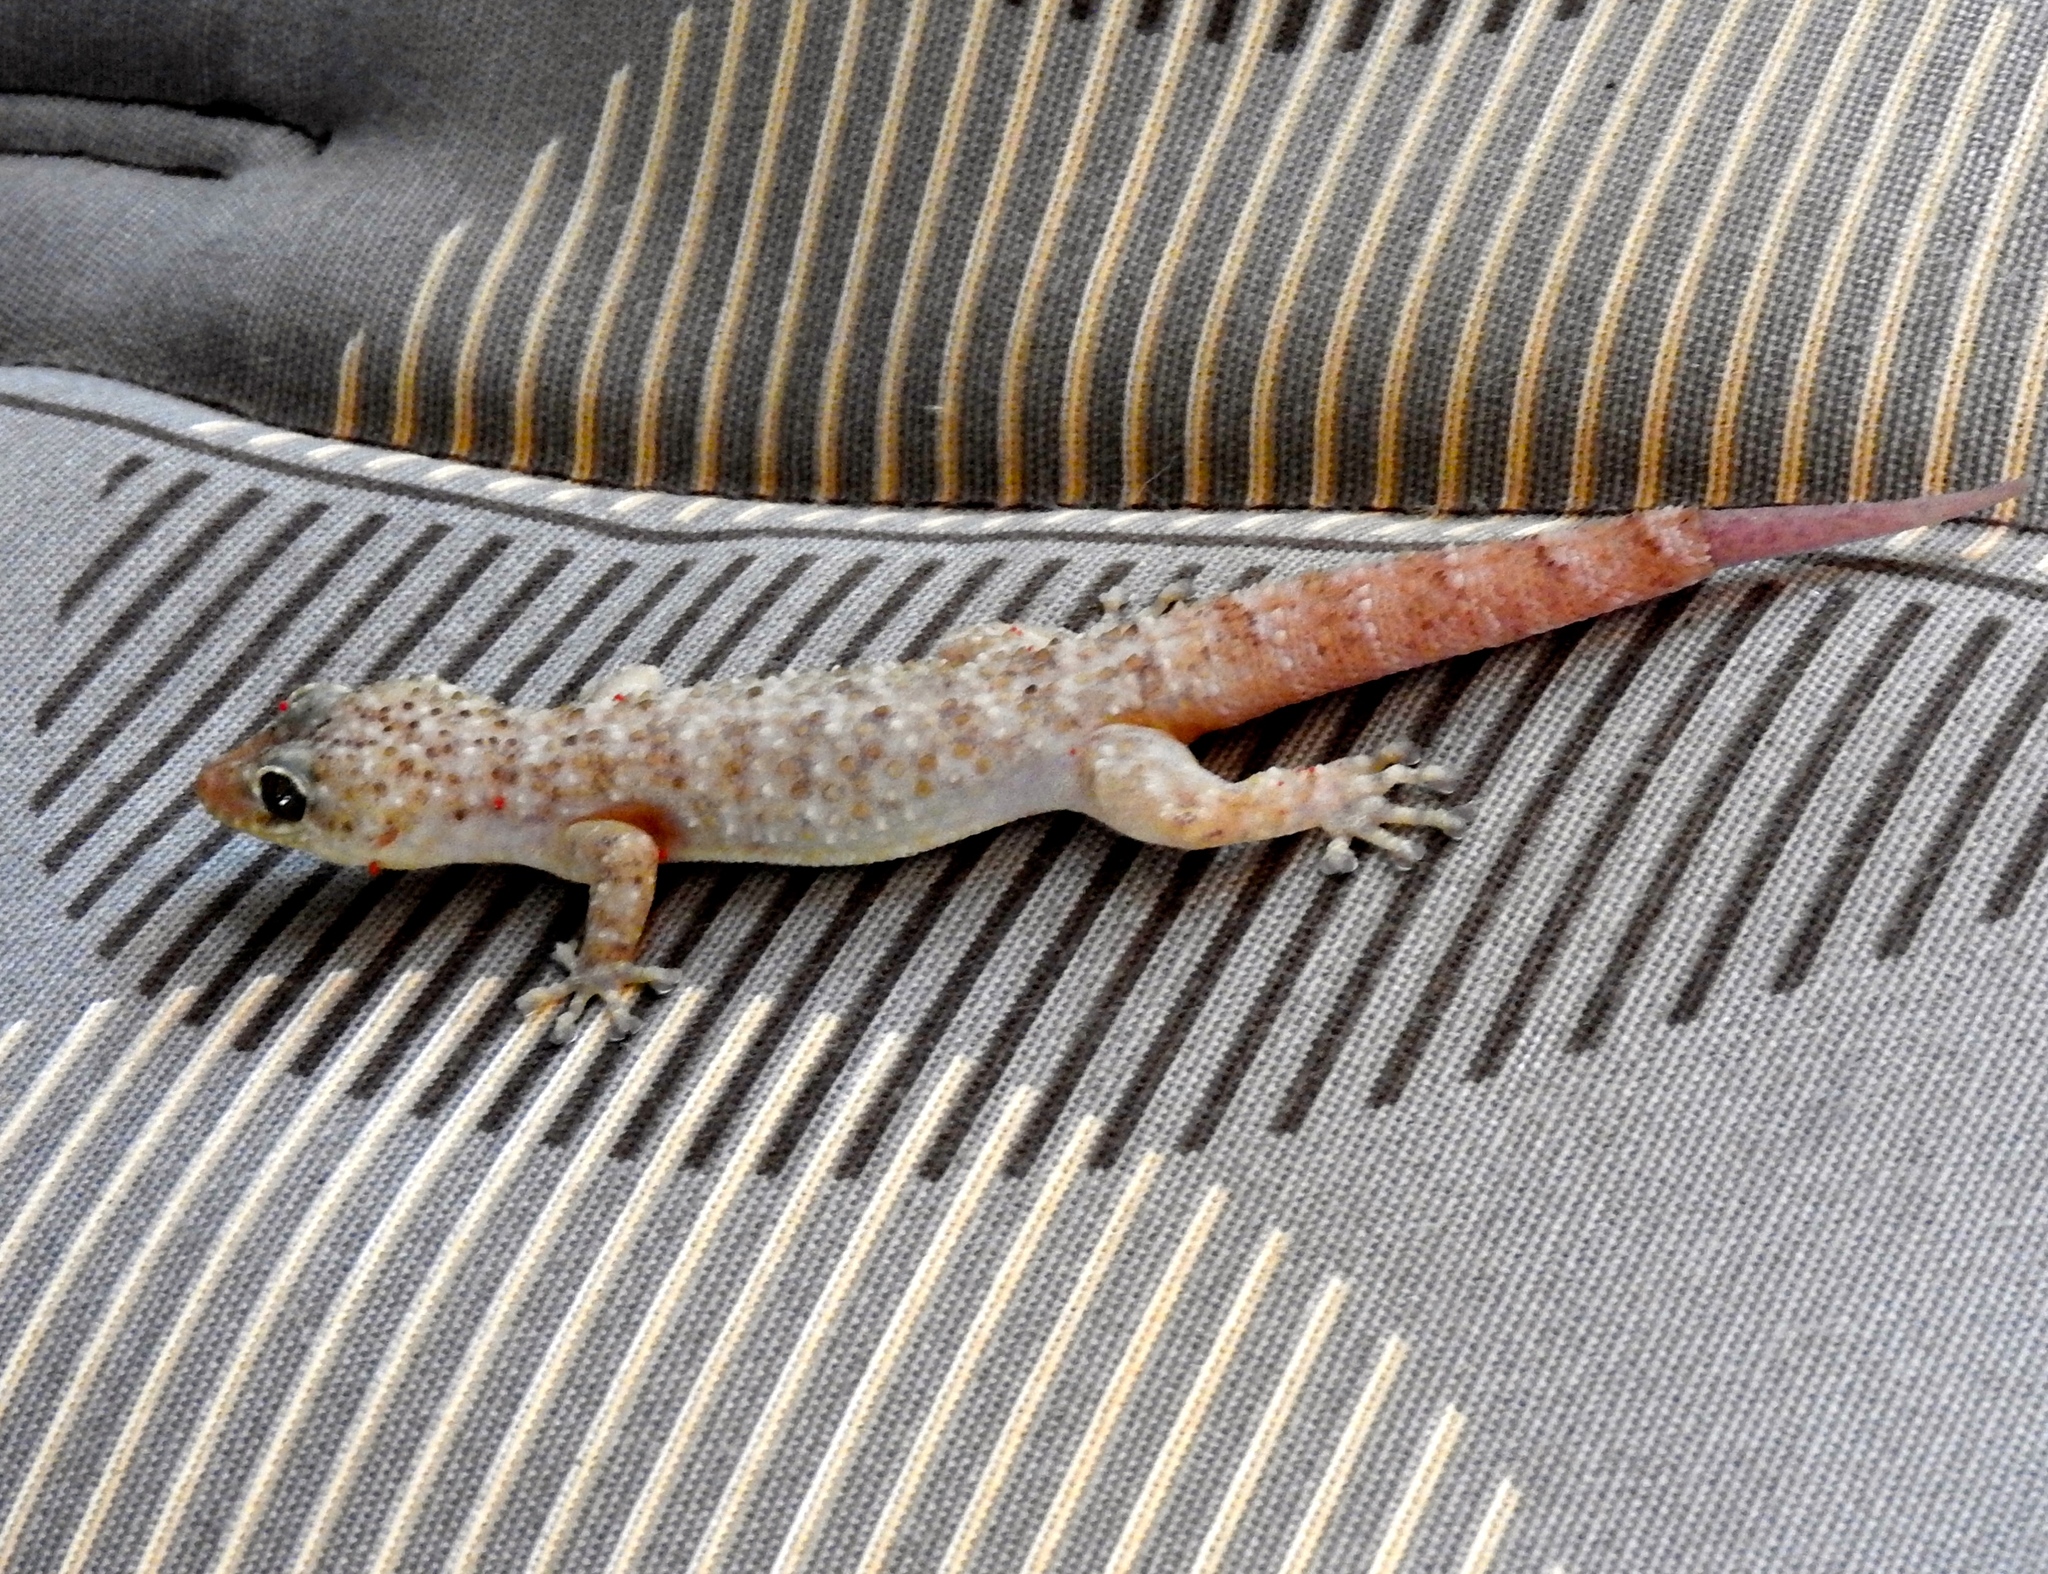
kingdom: Animalia
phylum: Chordata
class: Squamata
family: Phyllodactylidae
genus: Phyllodactylus
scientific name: Phyllodactylus lanei
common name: Lane's leaf-toed gecko
